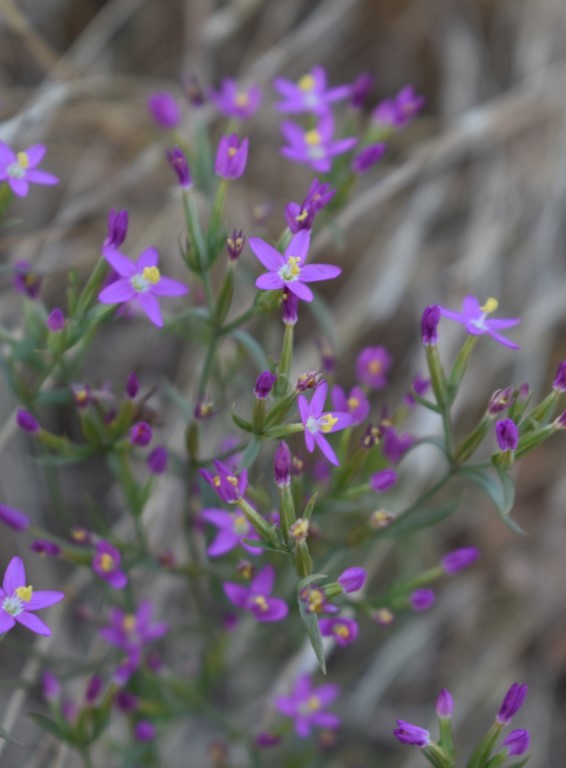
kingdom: Plantae
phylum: Tracheophyta
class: Magnoliopsida
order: Gentianales
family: Gentianaceae
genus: Zeltnera
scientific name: Zeltnera muhlenbergii
